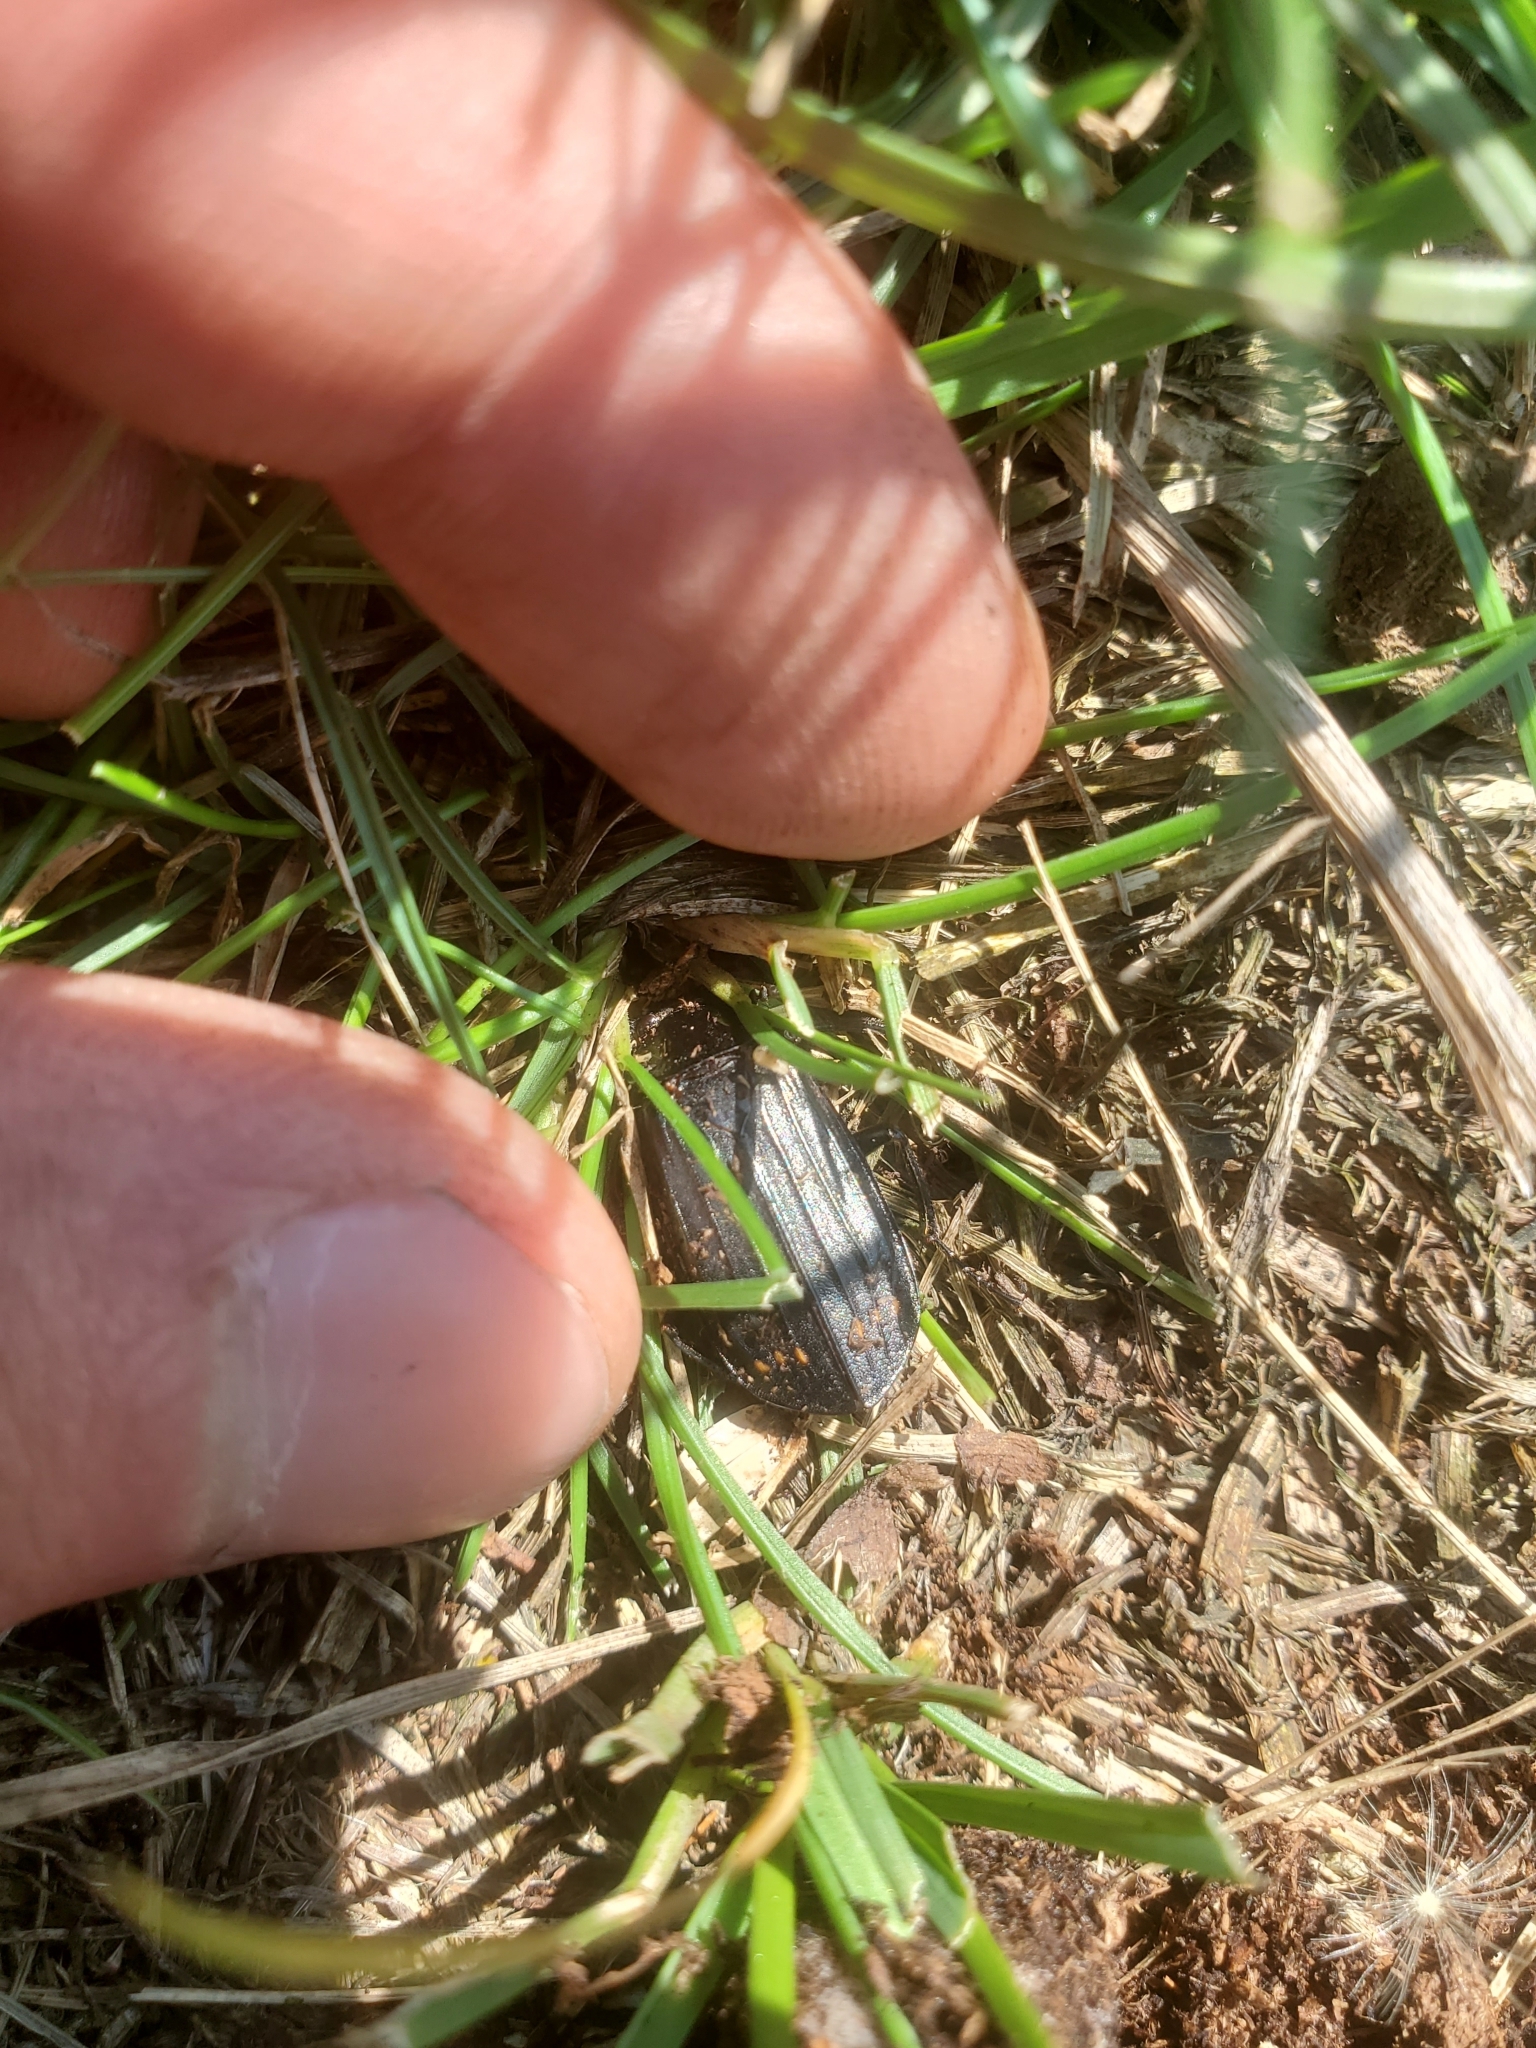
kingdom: Animalia
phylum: Arthropoda
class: Insecta
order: Coleoptera
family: Staphylinidae
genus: Necrodes
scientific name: Necrodes surinamensis
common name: Red-lined carrion beetle
